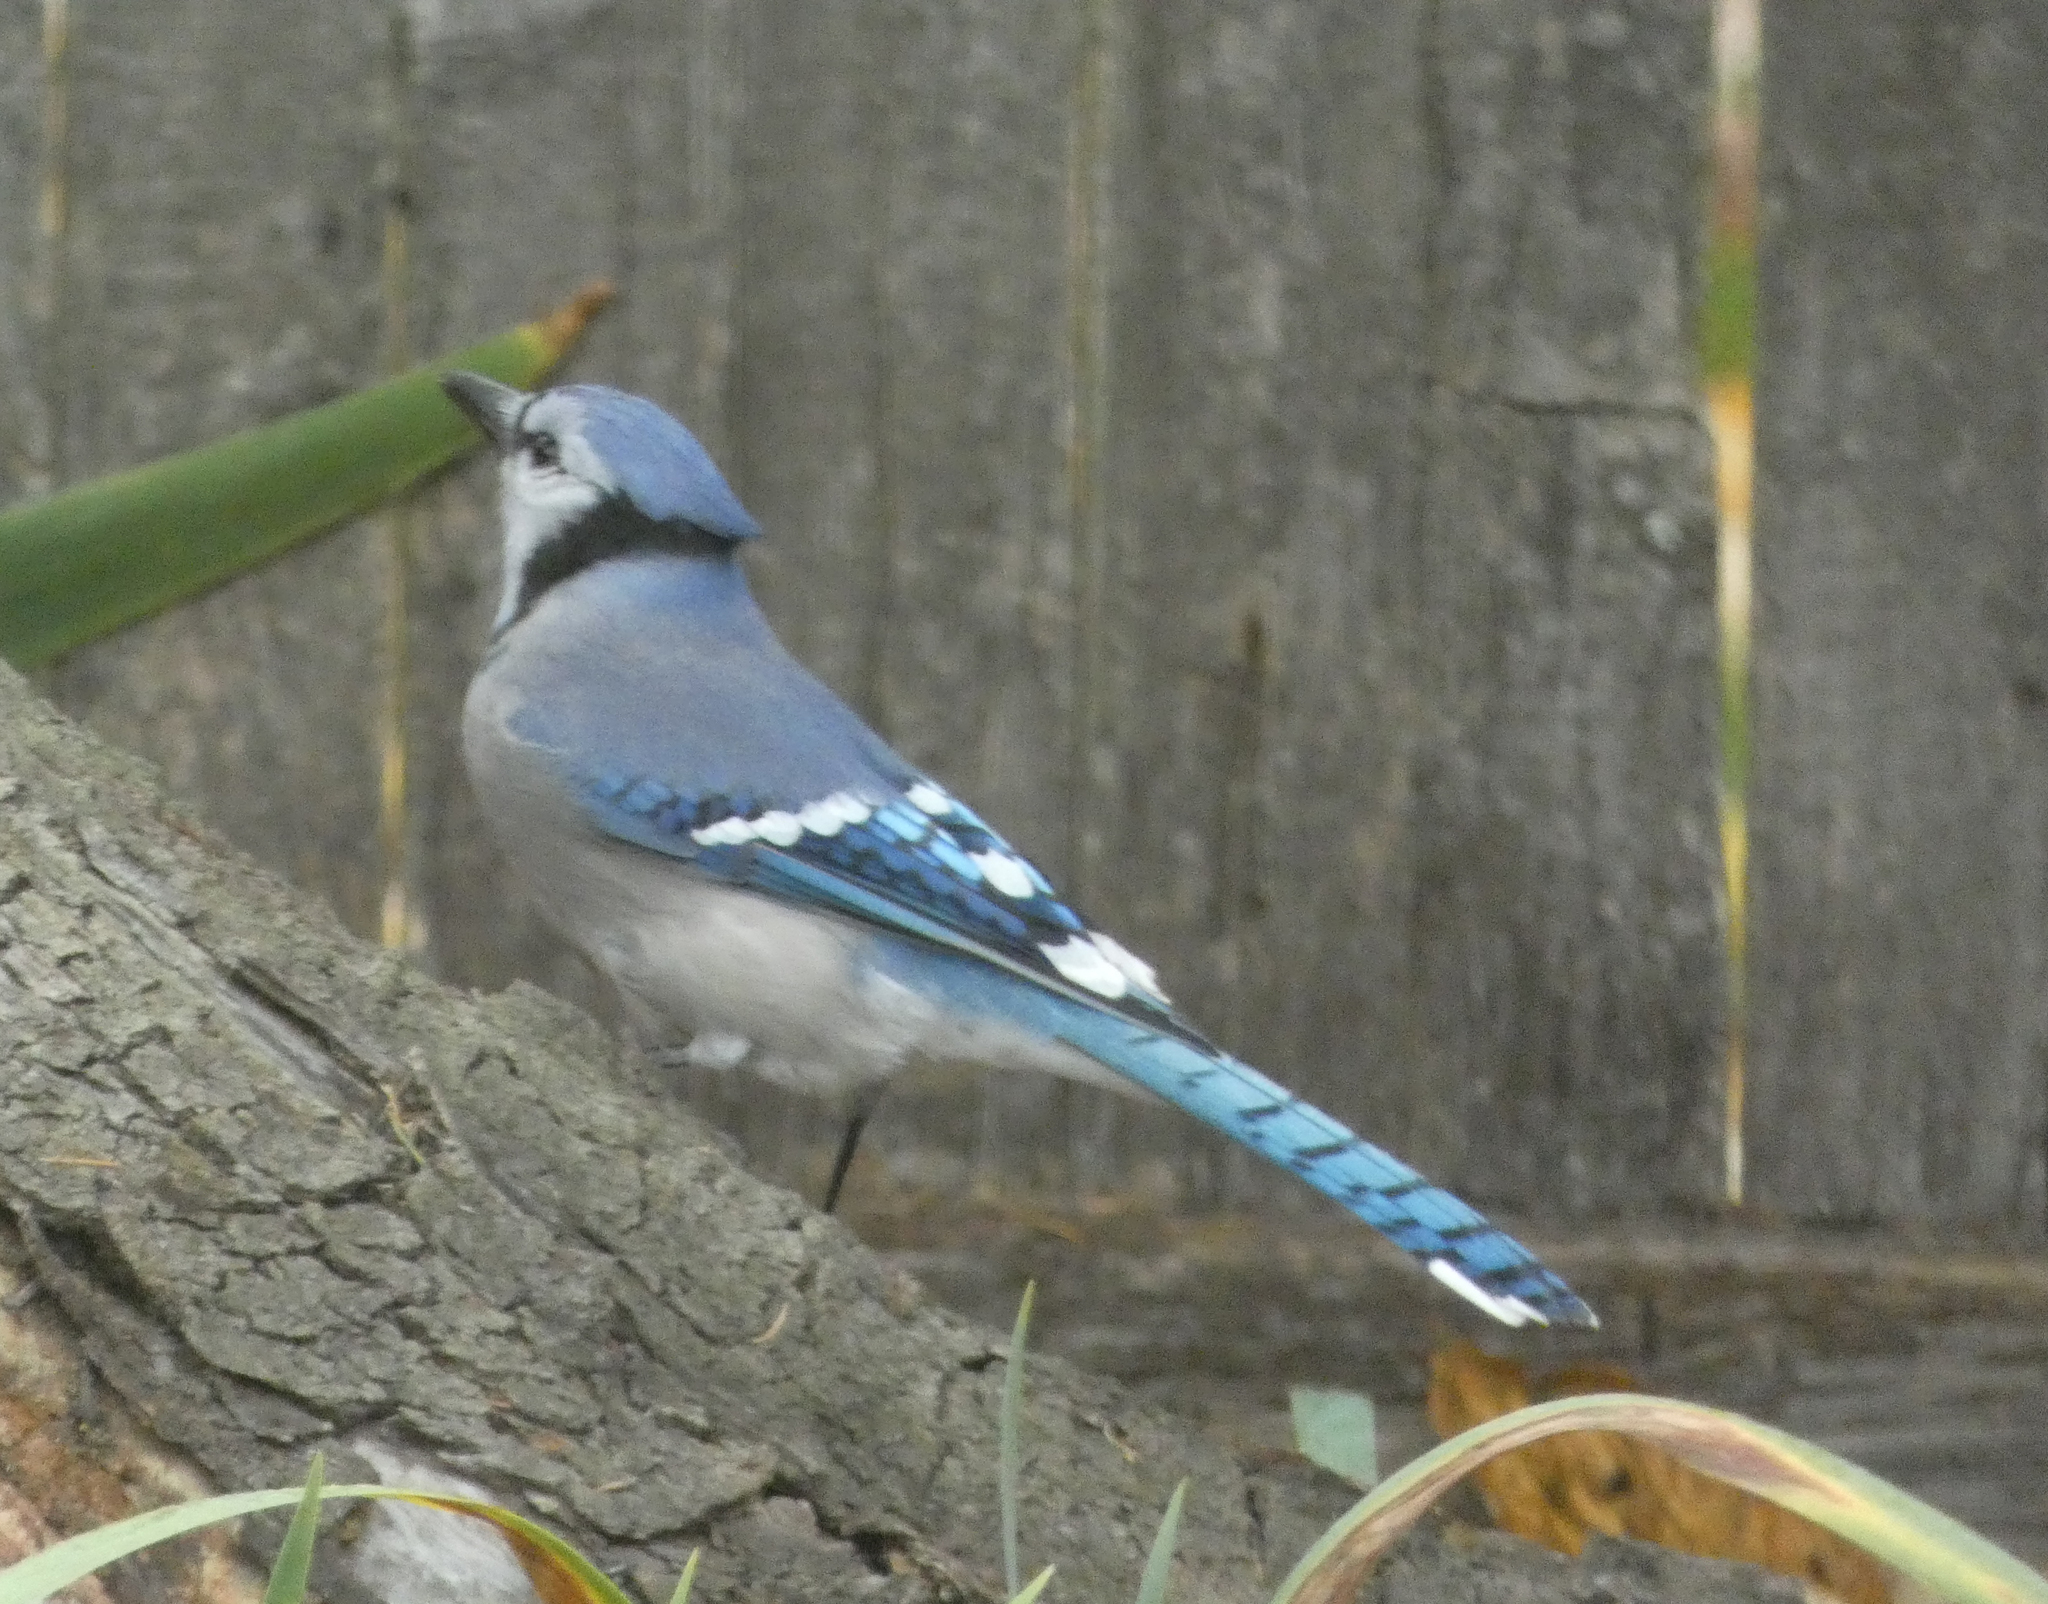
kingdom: Animalia
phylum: Chordata
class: Aves
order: Passeriformes
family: Corvidae
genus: Cyanocitta
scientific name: Cyanocitta cristata
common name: Blue jay
